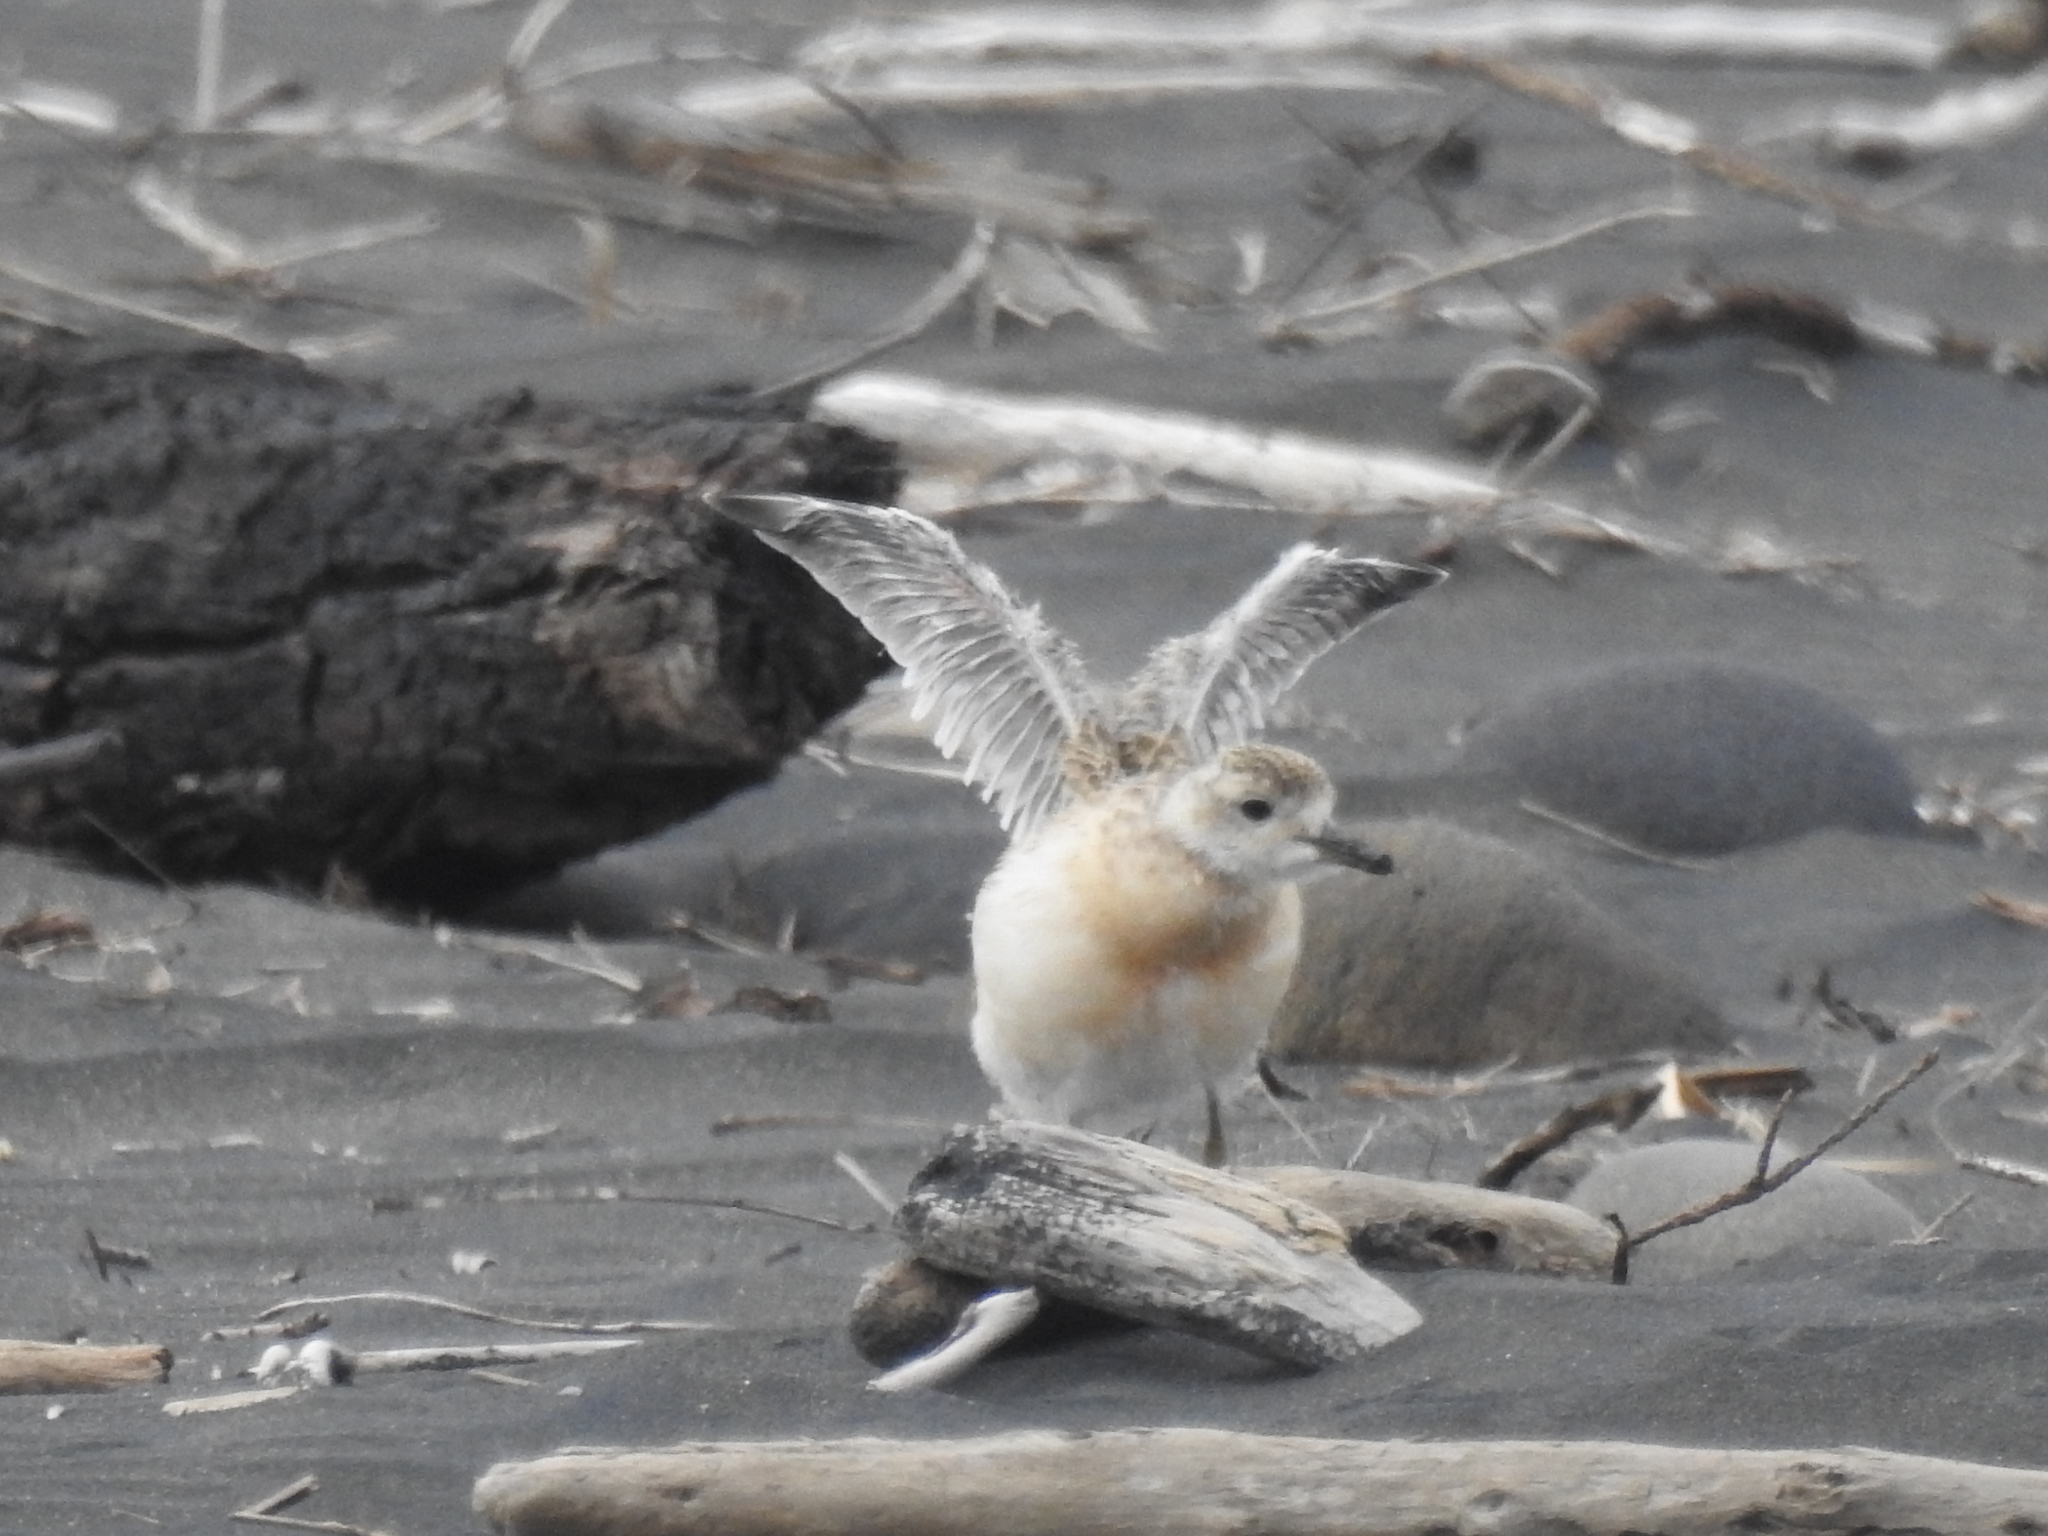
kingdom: Animalia
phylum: Chordata
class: Aves
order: Charadriiformes
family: Charadriidae
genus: Anarhynchus
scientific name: Anarhynchus
